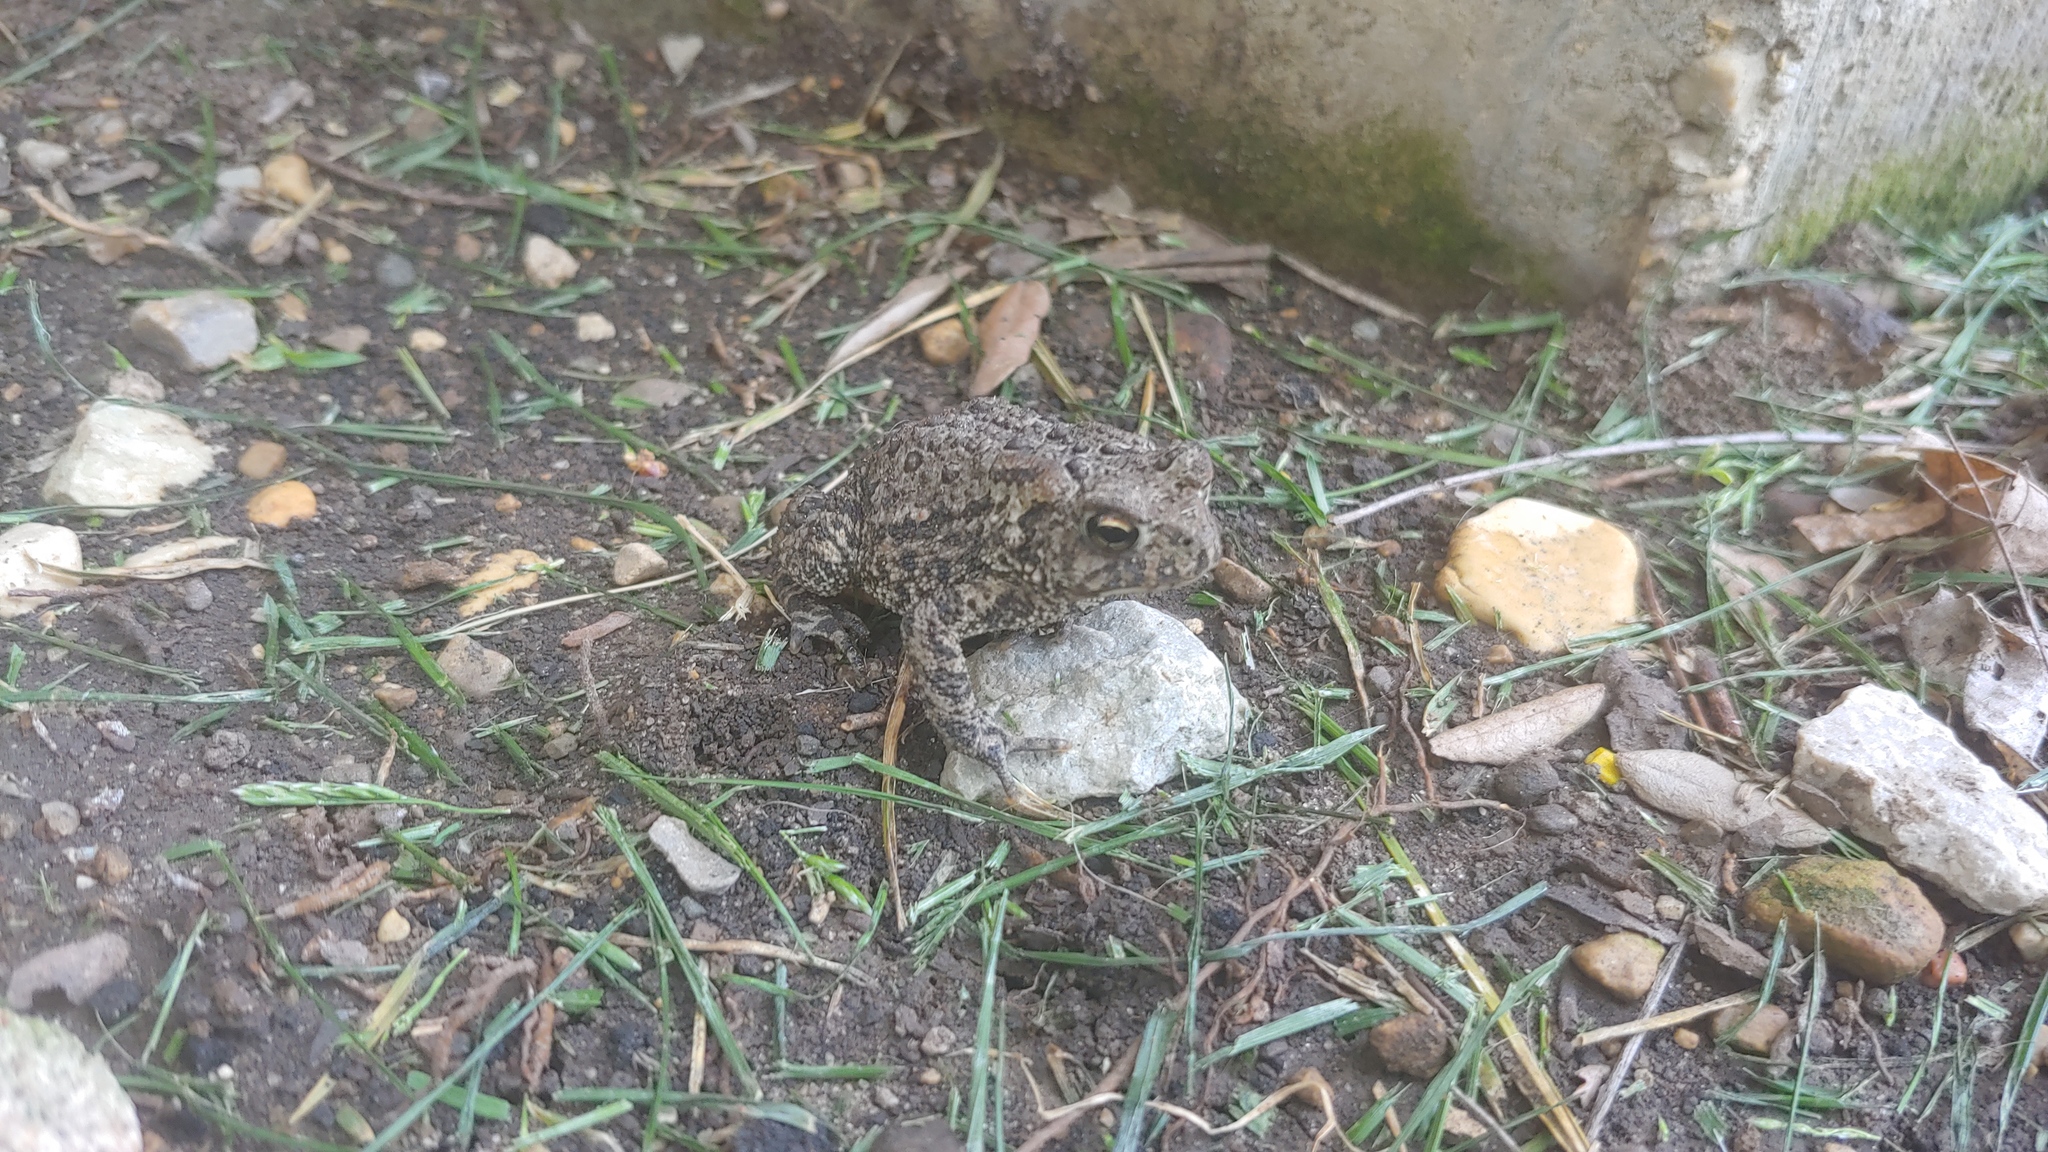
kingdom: Animalia
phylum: Chordata
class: Amphibia
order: Anura
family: Bufonidae
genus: Anaxyrus
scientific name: Anaxyrus americanus
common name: American toad
